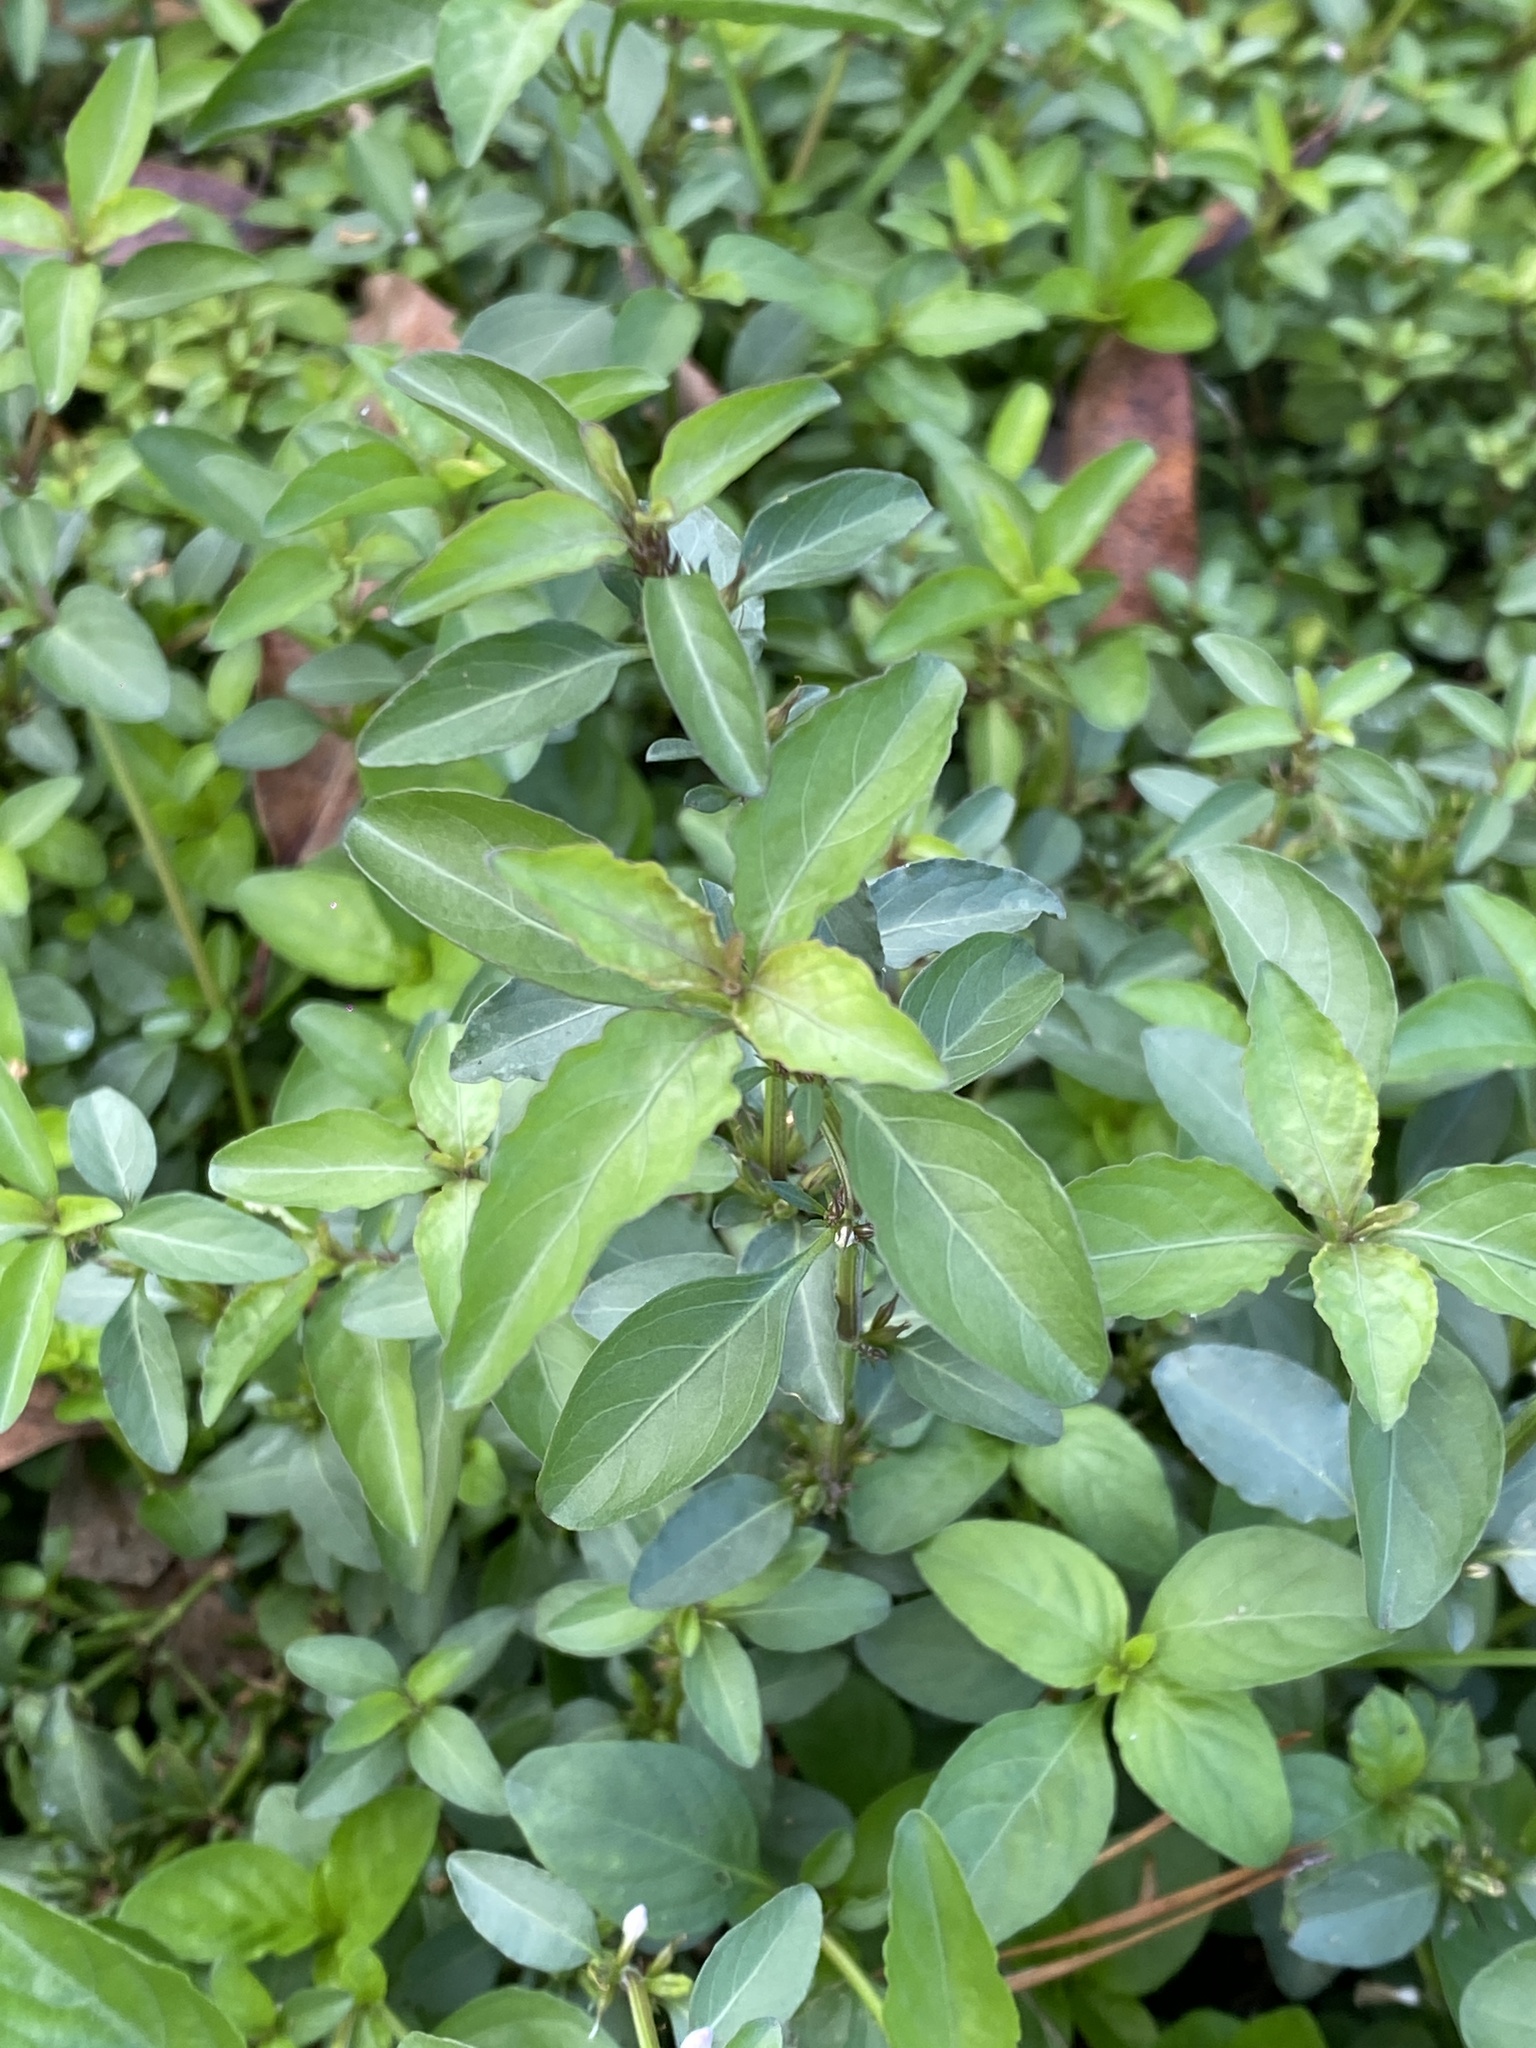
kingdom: Plantae
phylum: Tracheophyta
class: Magnoliopsida
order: Lamiales
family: Acanthaceae
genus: Hygrophila
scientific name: Hygrophila erecta
